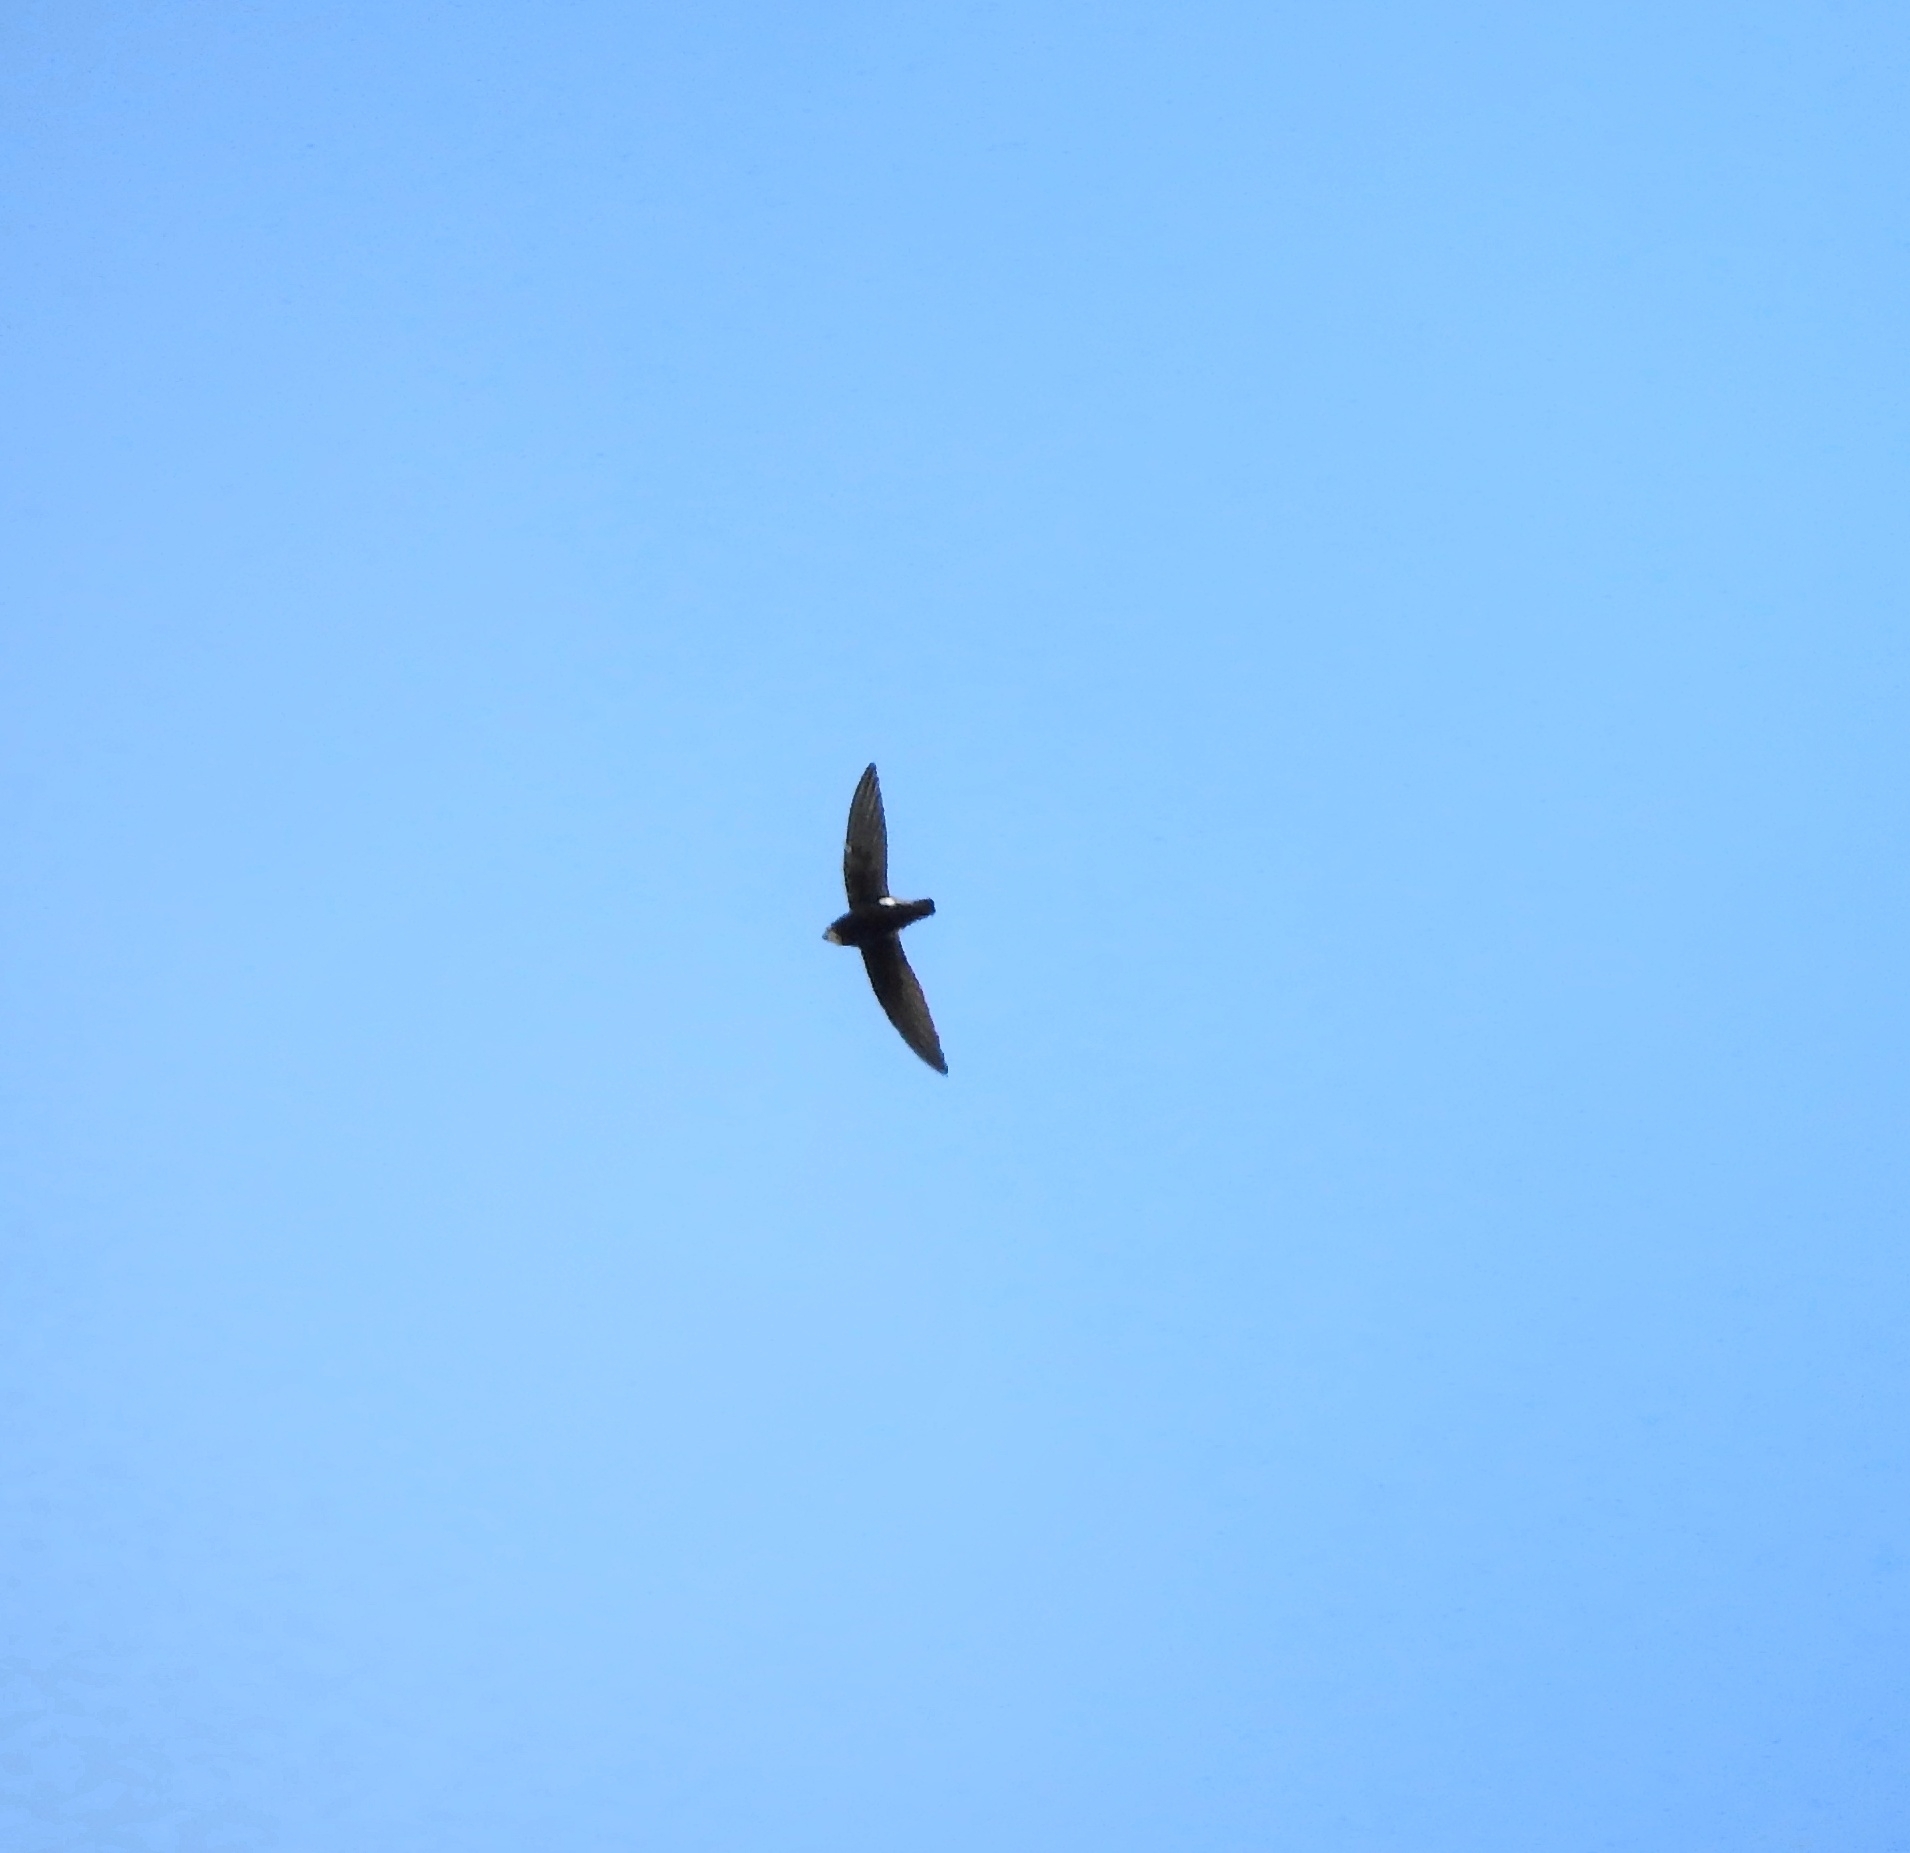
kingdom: Animalia
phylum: Chordata
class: Aves
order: Apodiformes
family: Apodidae
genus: Apus
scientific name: Apus affinis
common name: Little swift
